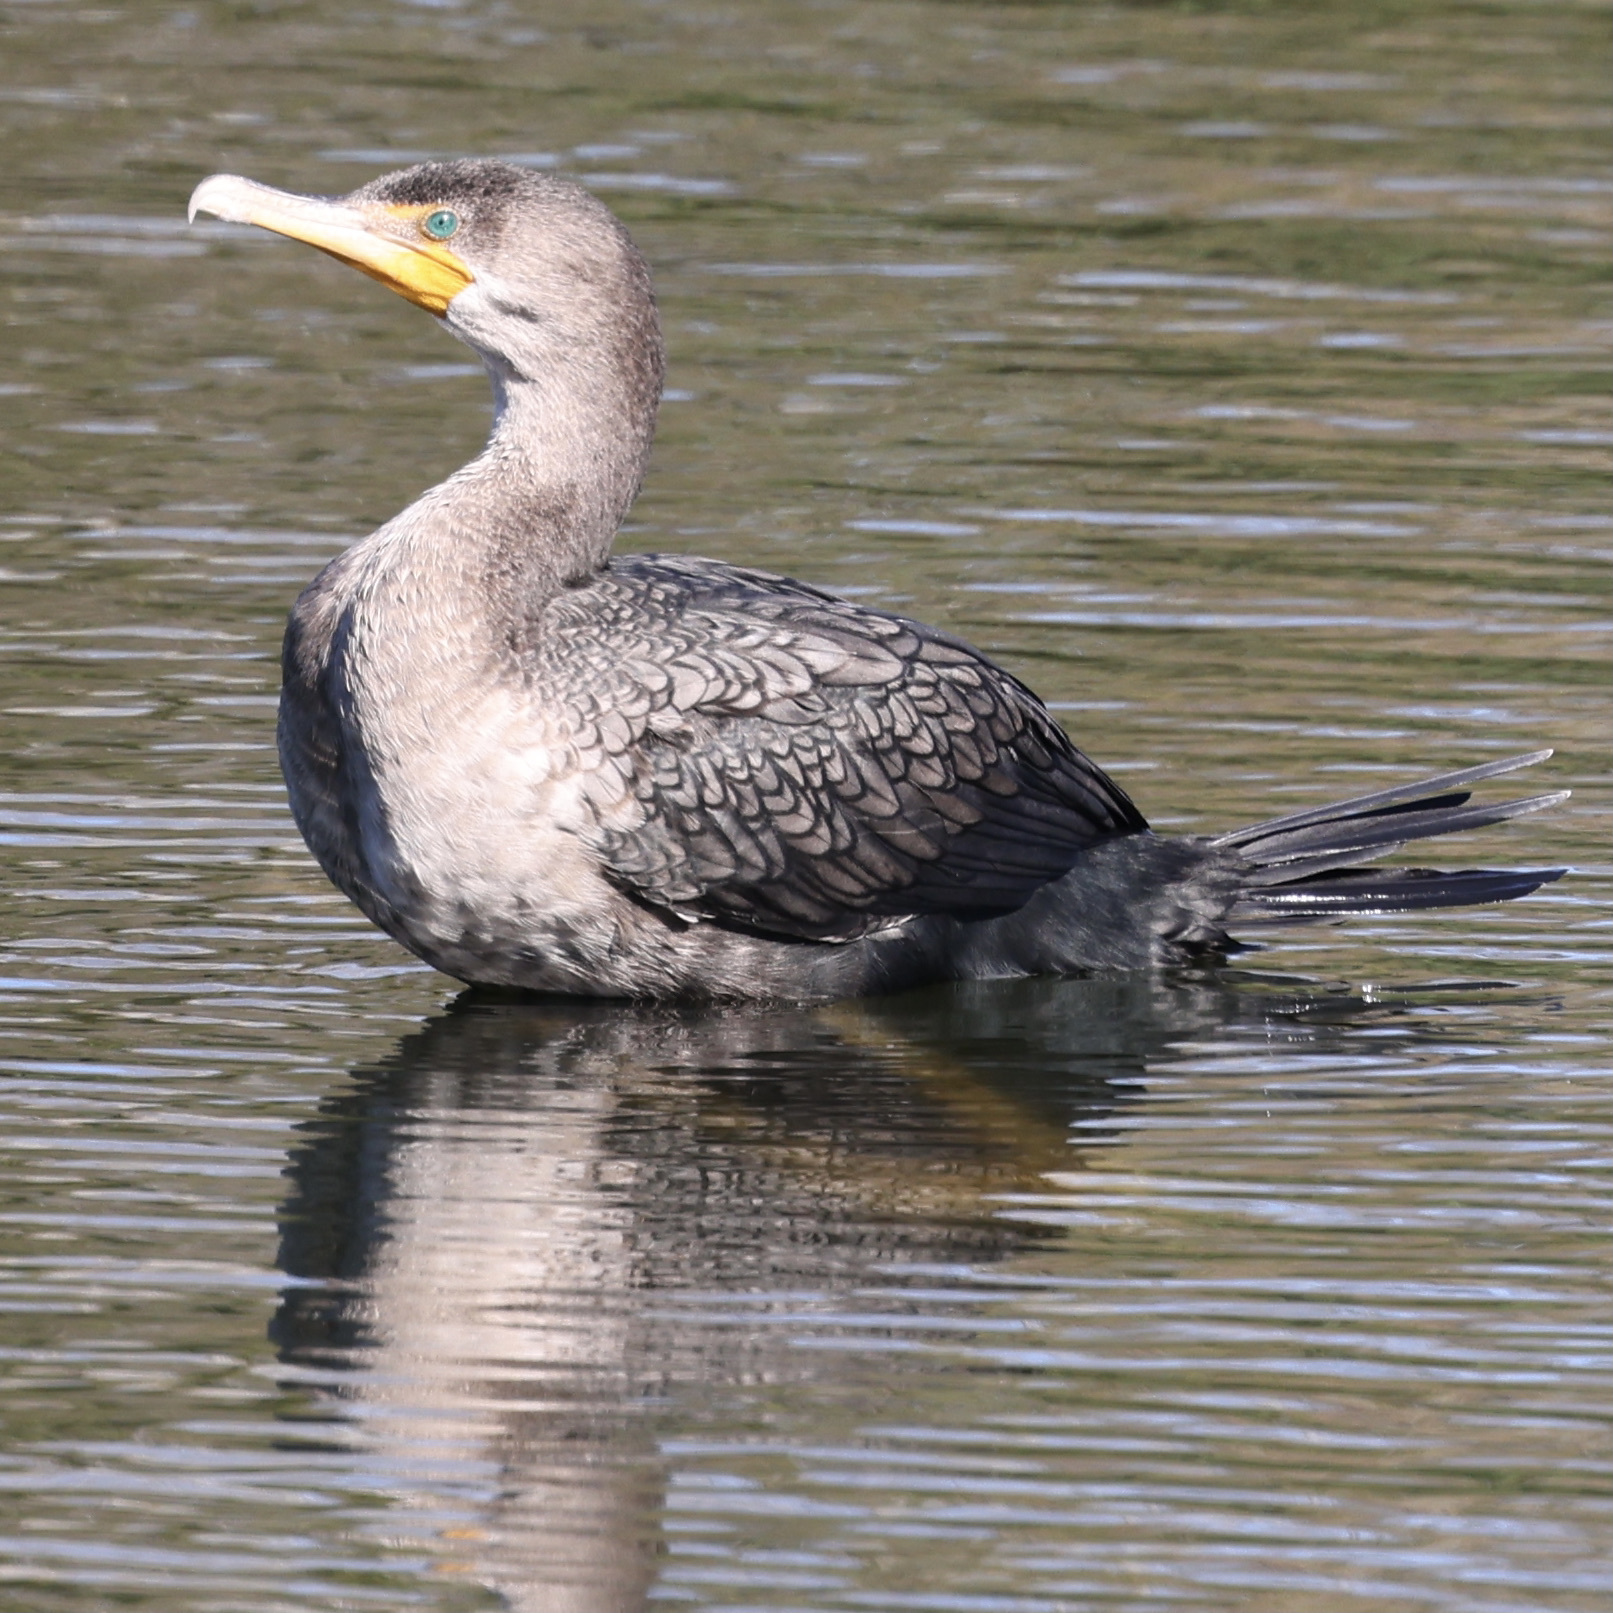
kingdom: Animalia
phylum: Chordata
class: Aves
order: Suliformes
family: Phalacrocoracidae
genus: Phalacrocorax
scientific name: Phalacrocorax auritus
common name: Double-crested cormorant
